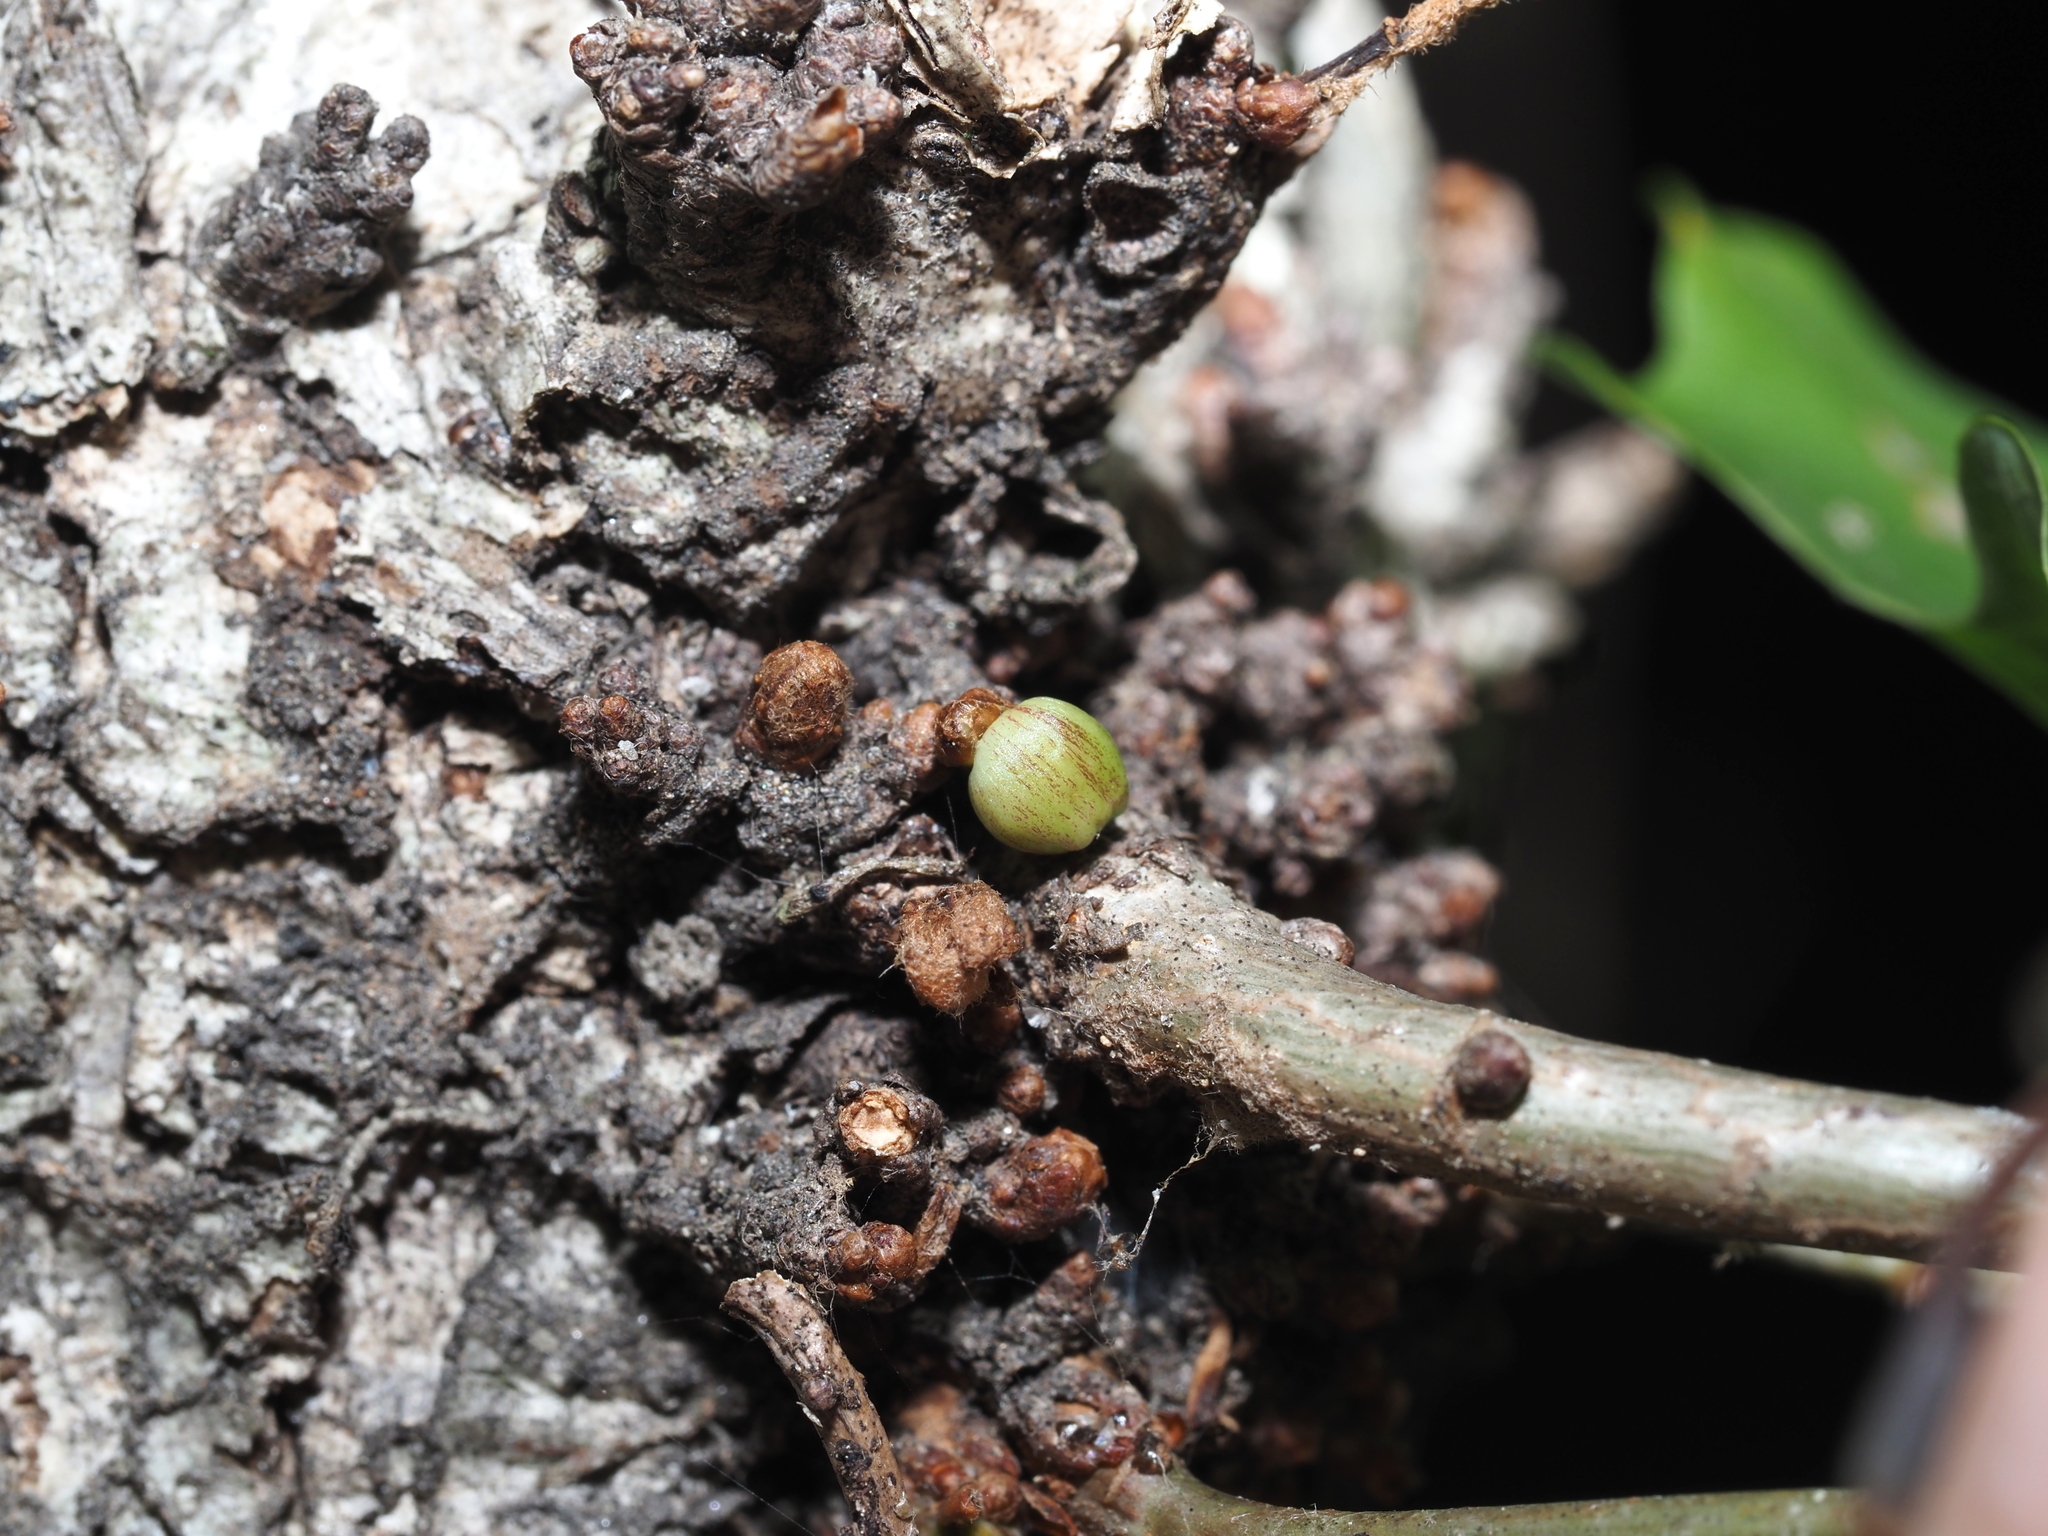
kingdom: Animalia
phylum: Arthropoda
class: Insecta
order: Hymenoptera
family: Cynipidae
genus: Andricus
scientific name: Andricus
